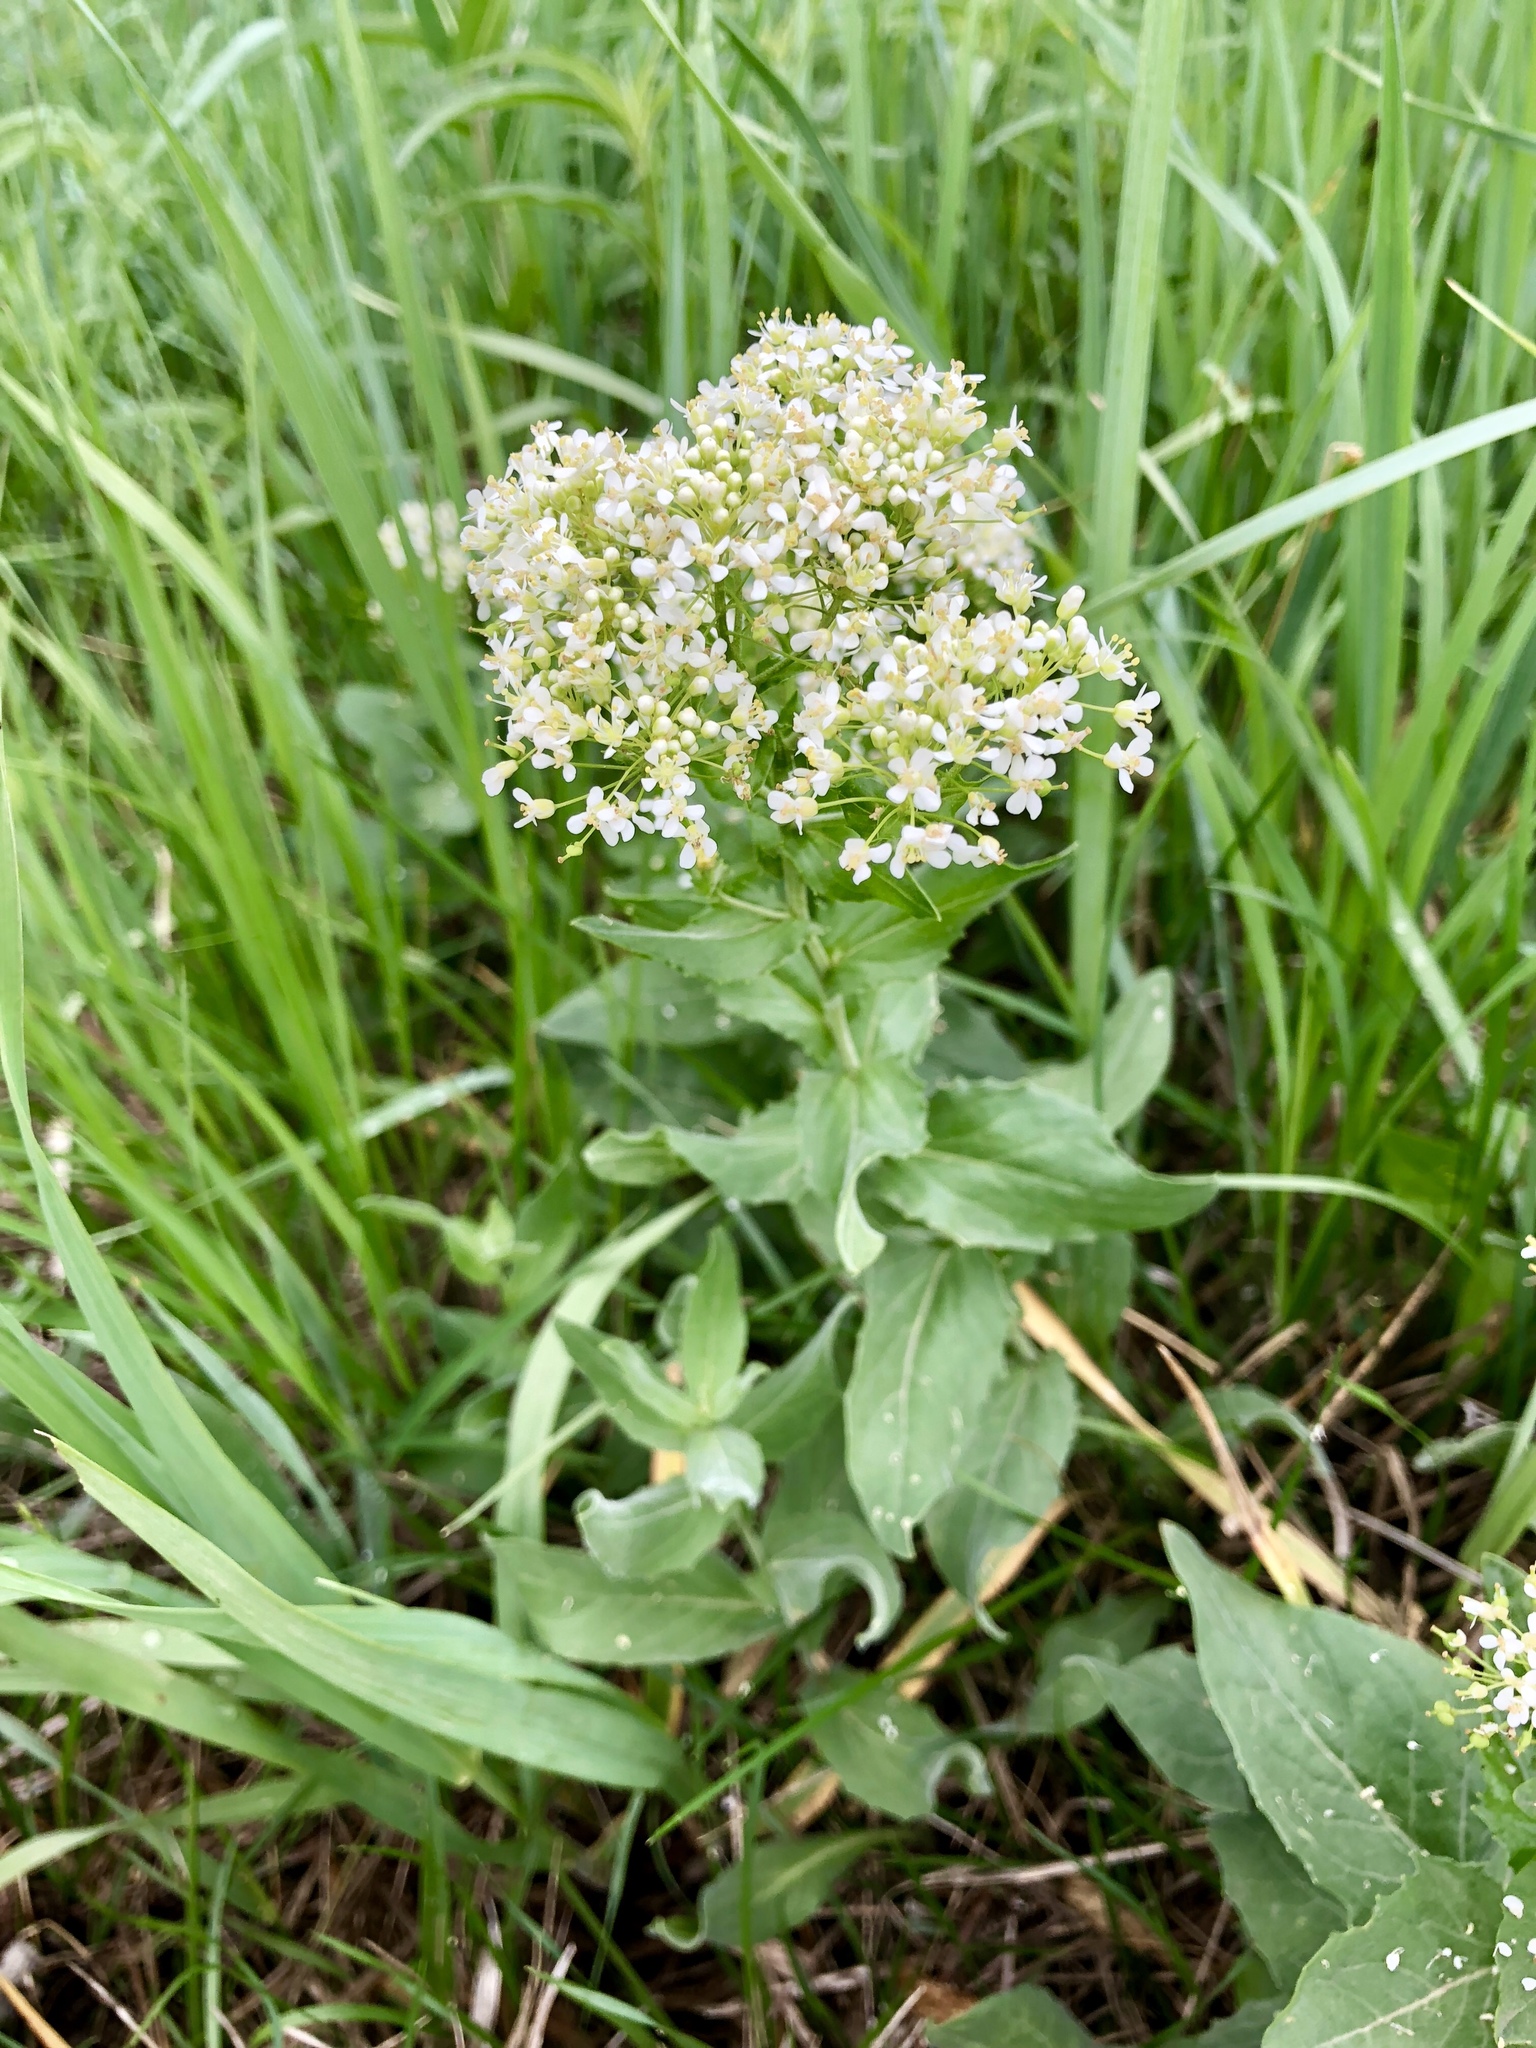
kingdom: Plantae
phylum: Tracheophyta
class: Magnoliopsida
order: Brassicales
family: Brassicaceae
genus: Lepidium
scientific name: Lepidium draba
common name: Hoary cress
